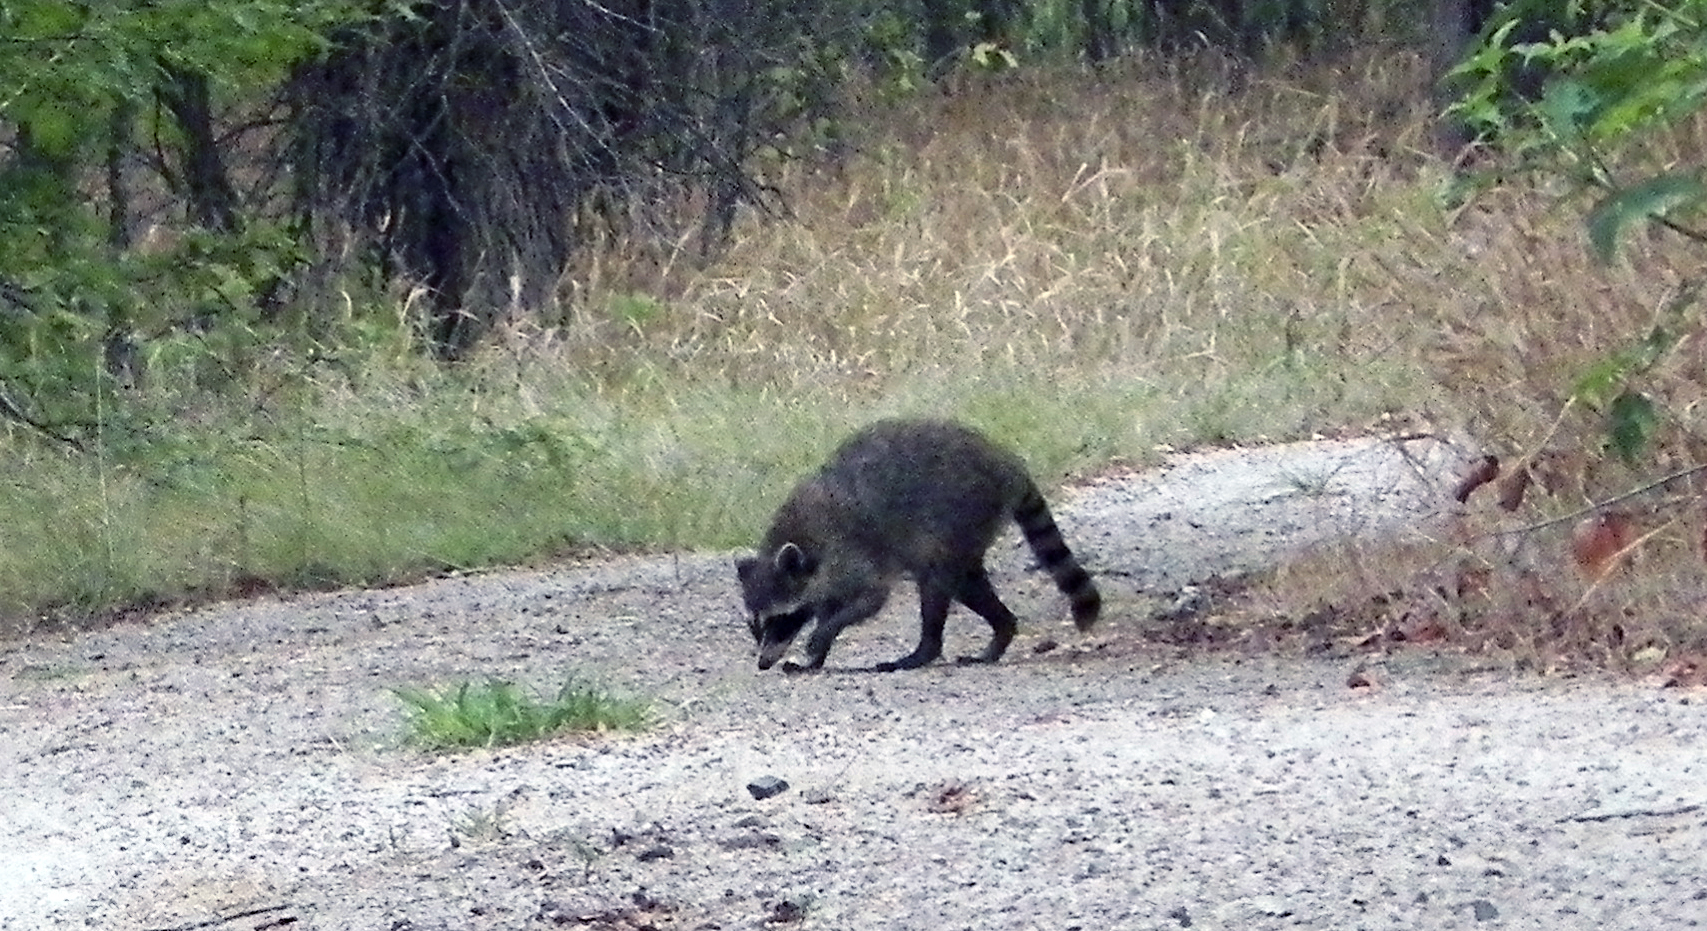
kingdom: Animalia
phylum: Chordata
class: Mammalia
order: Carnivora
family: Procyonidae
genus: Procyon
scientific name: Procyon lotor
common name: Raccoon
